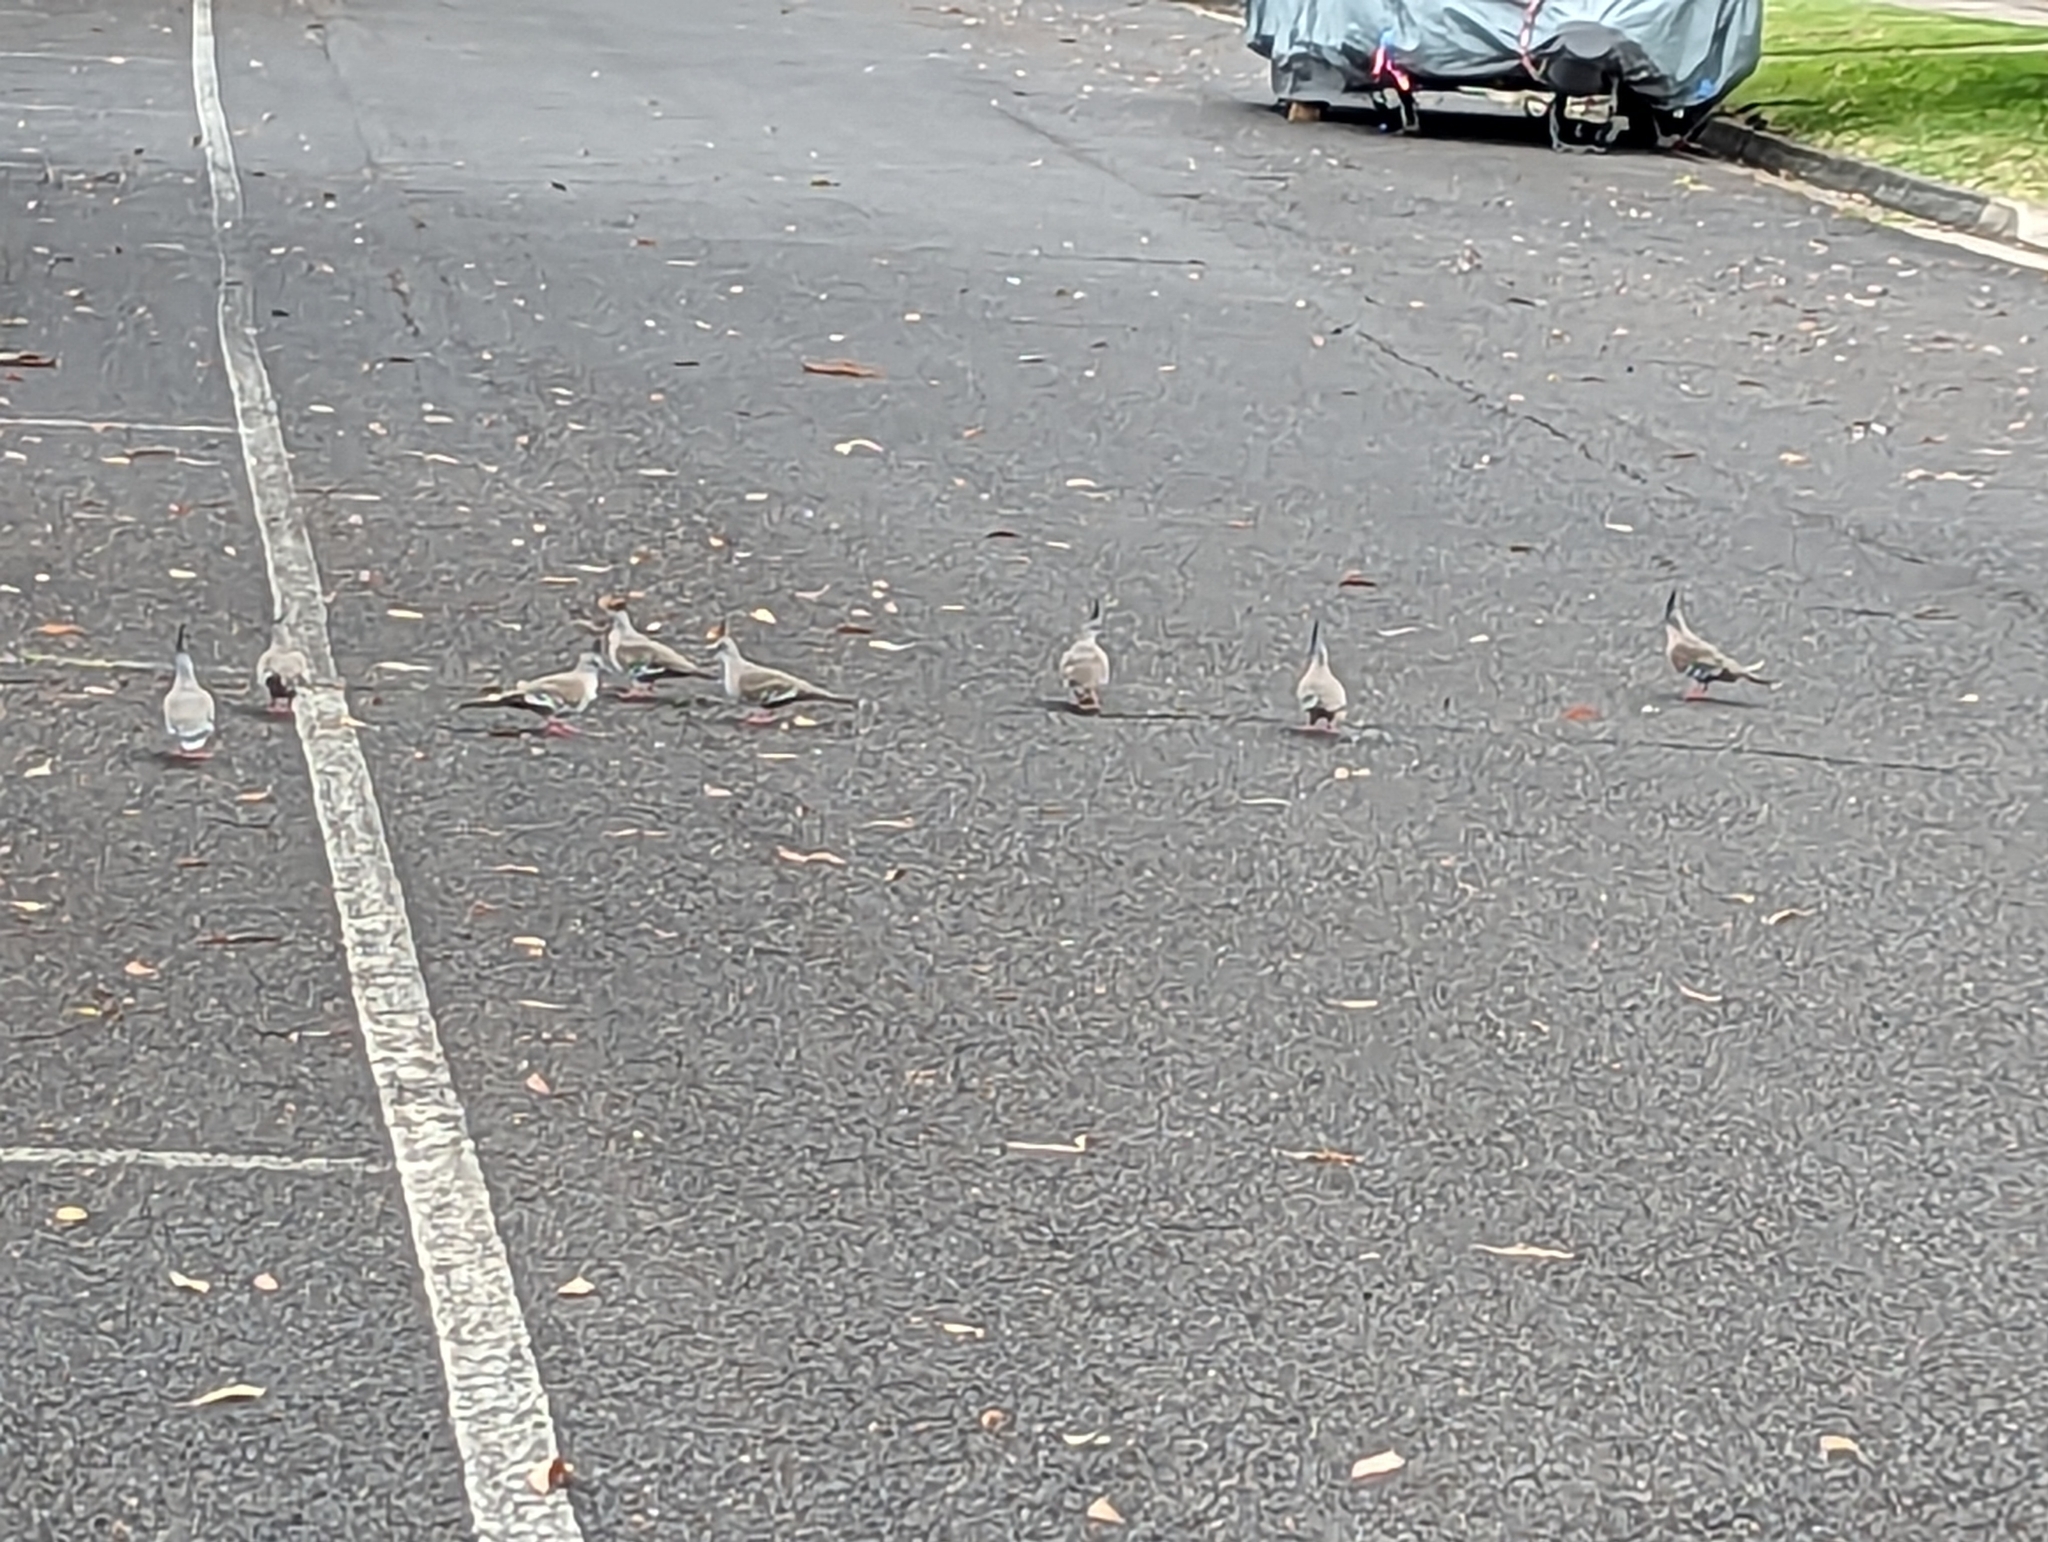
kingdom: Animalia
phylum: Chordata
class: Aves
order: Columbiformes
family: Columbidae
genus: Ocyphaps
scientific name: Ocyphaps lophotes
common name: Crested pigeon
